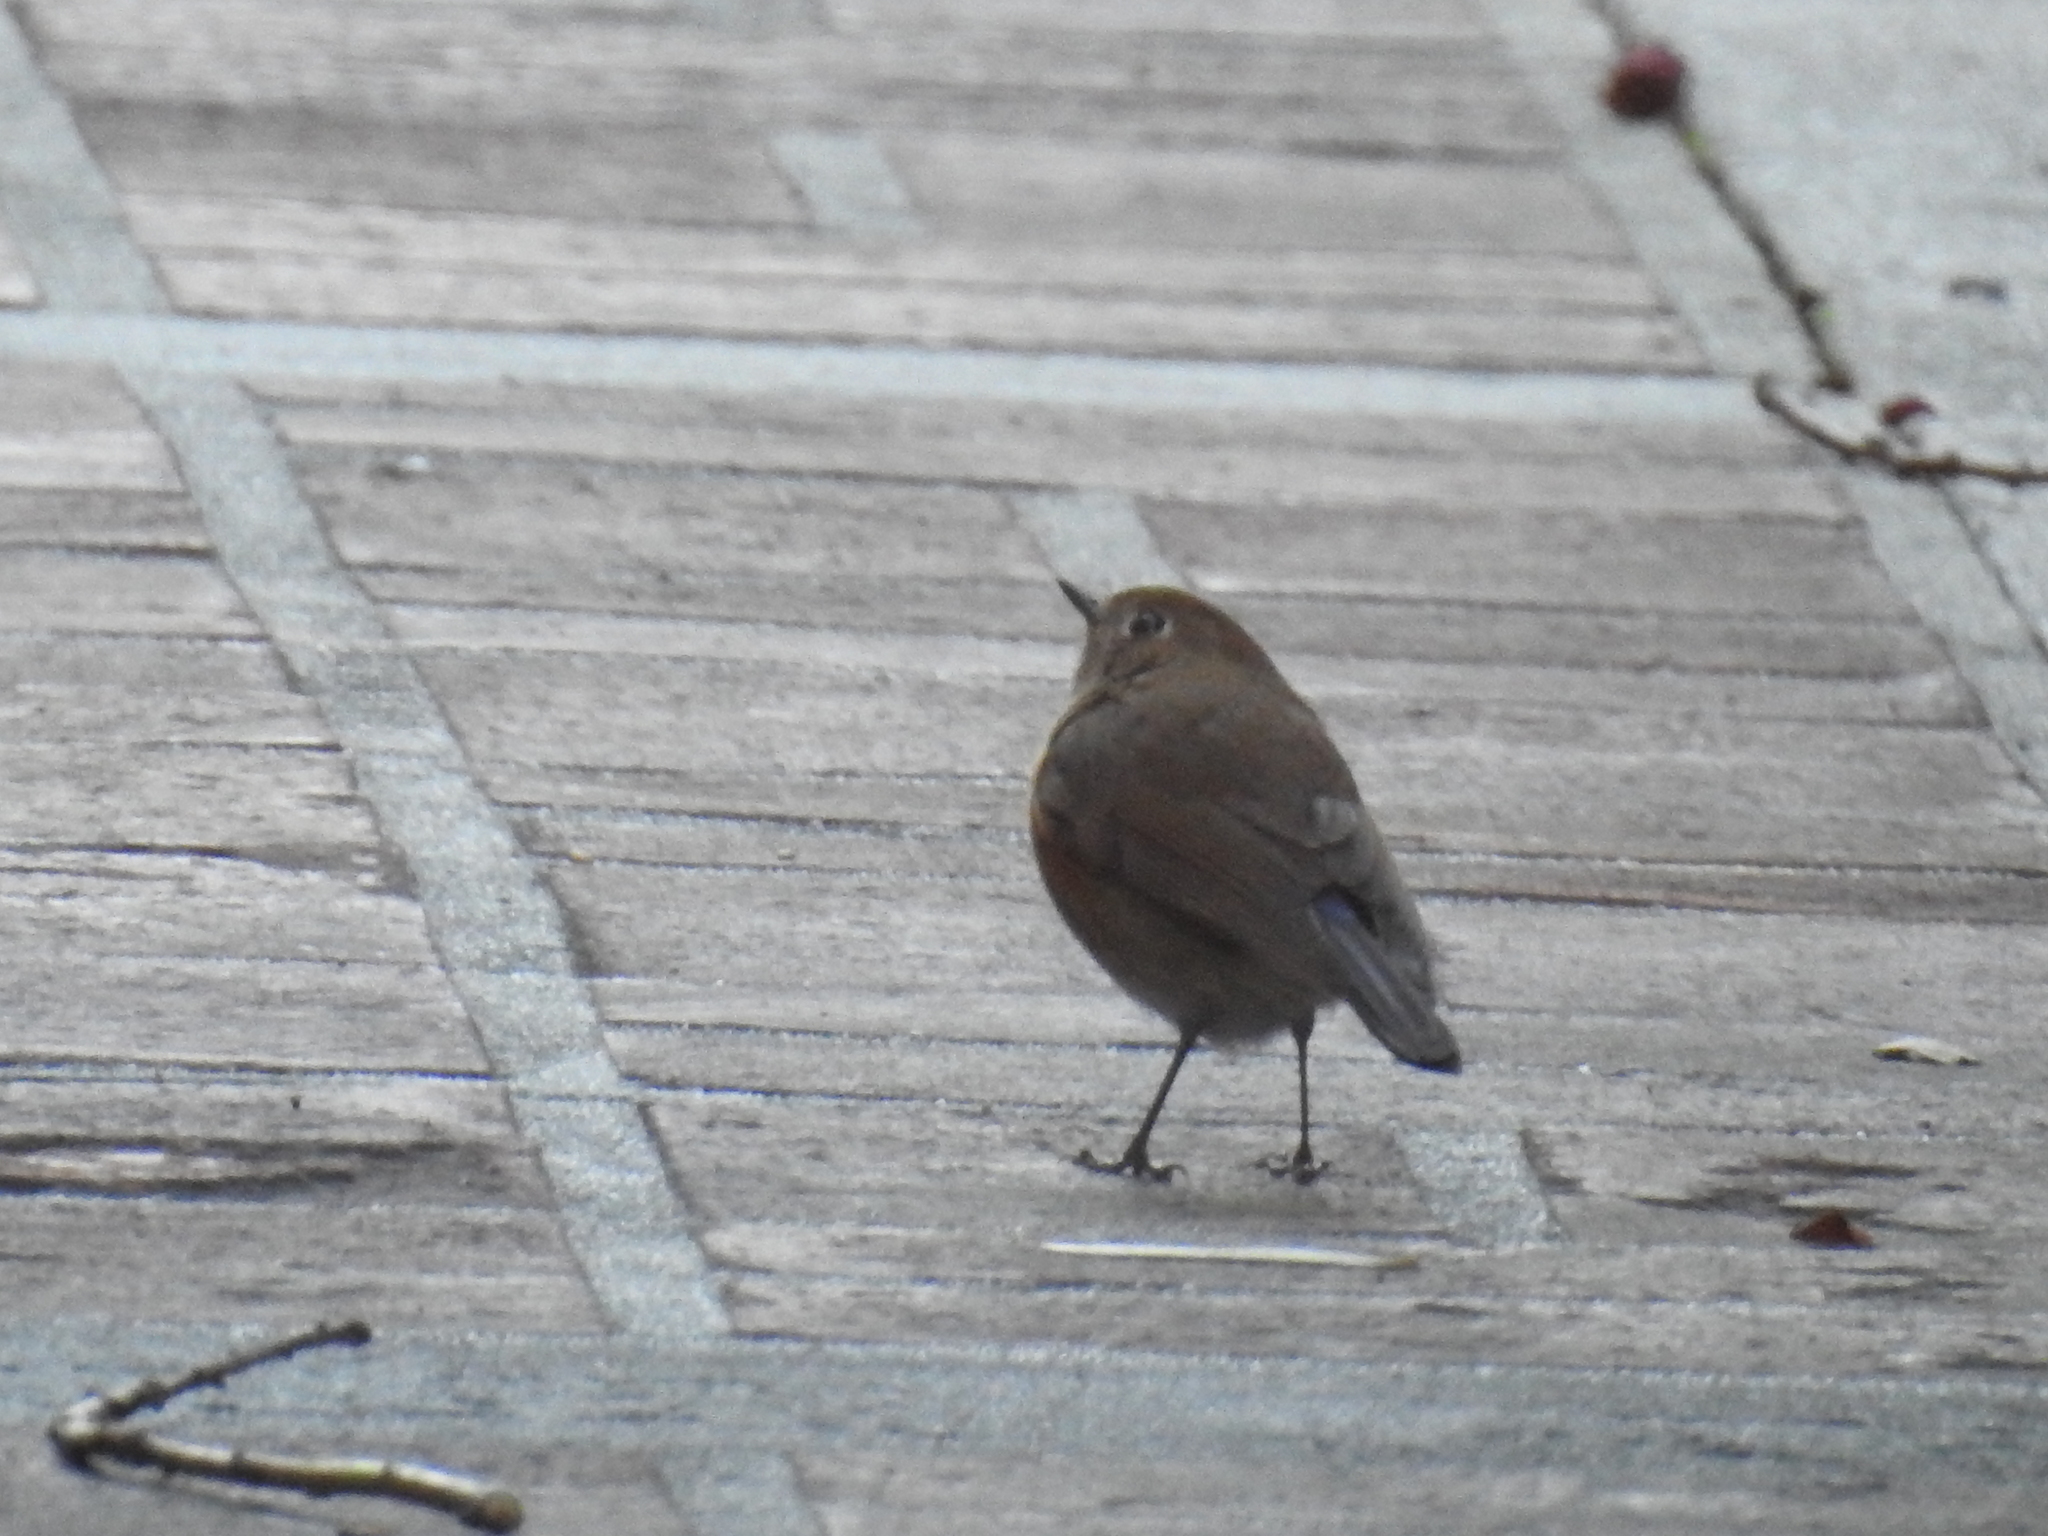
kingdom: Animalia
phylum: Chordata
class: Aves
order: Passeriformes
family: Muscicapidae
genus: Tarsiger
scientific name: Tarsiger cyanurus
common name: Red-flanked bluetail
